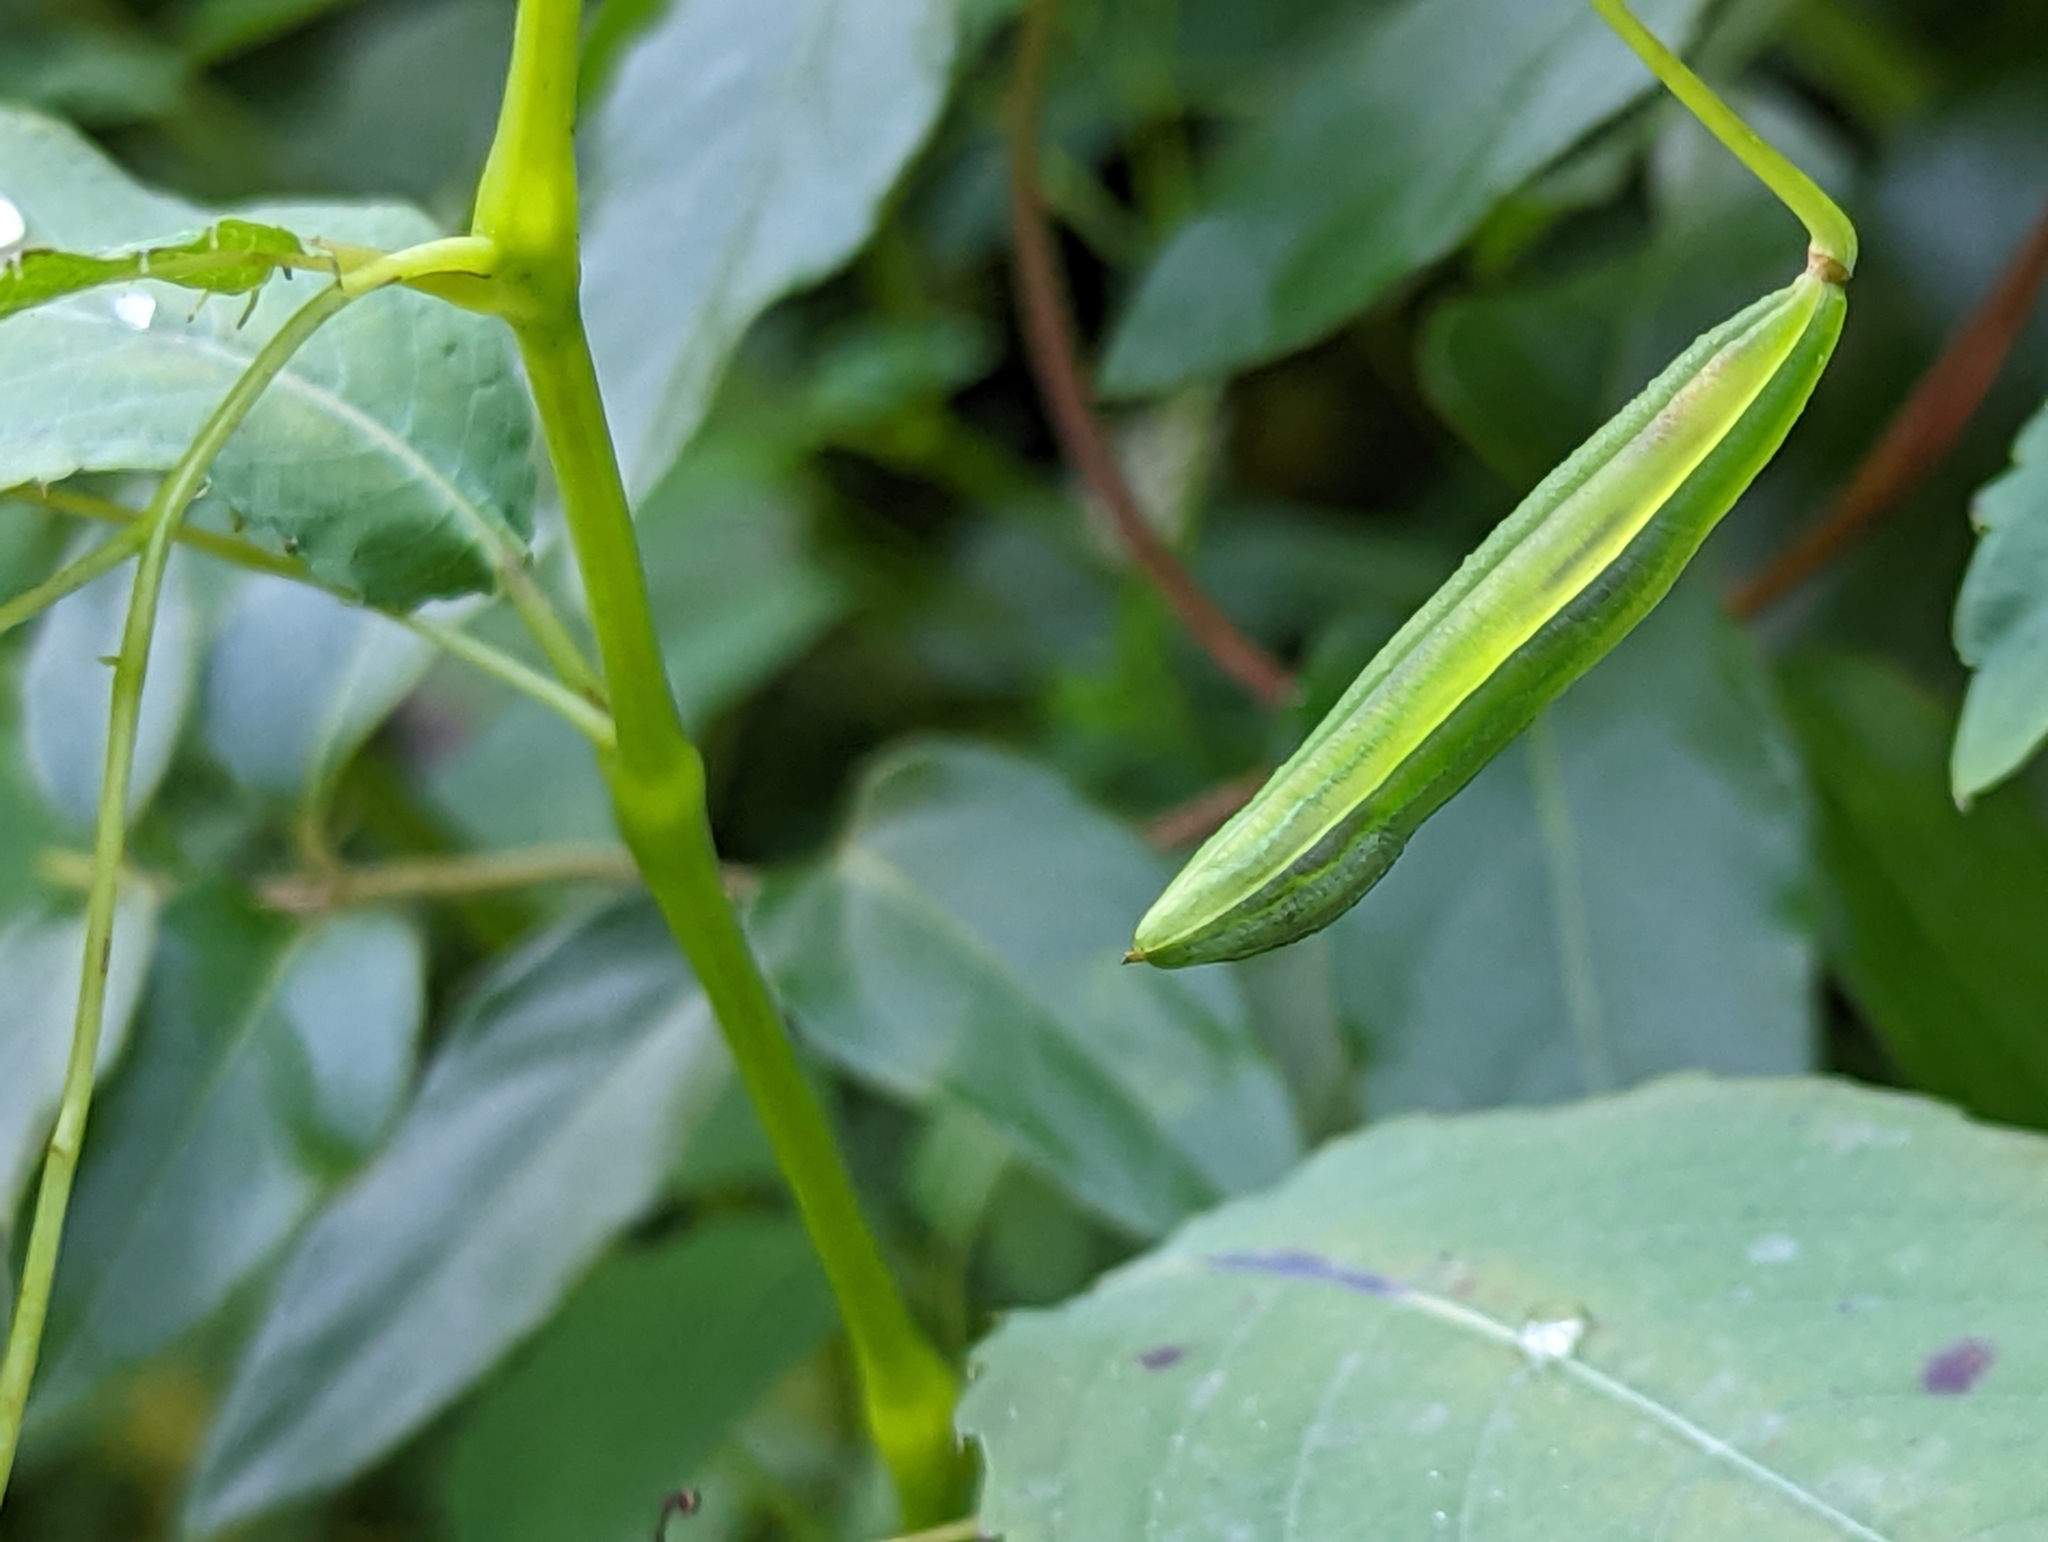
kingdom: Plantae
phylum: Tracheophyta
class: Magnoliopsida
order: Ericales
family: Balsaminaceae
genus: Impatiens
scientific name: Impatiens pallida
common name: Pale snapweed
